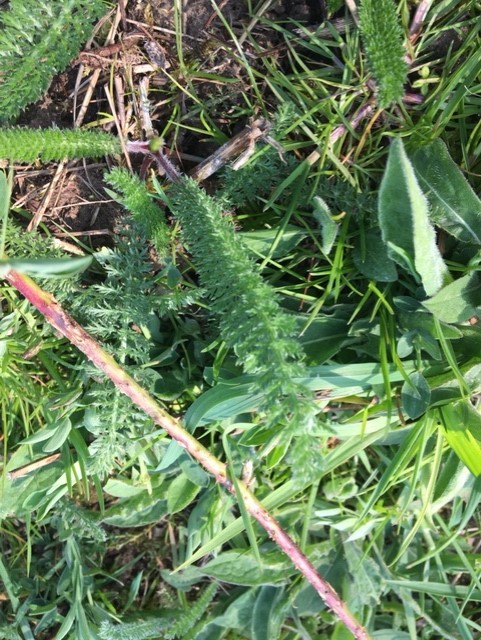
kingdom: Plantae
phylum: Tracheophyta
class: Magnoliopsida
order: Asterales
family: Asteraceae
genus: Achillea
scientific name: Achillea millefolium
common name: Yarrow
